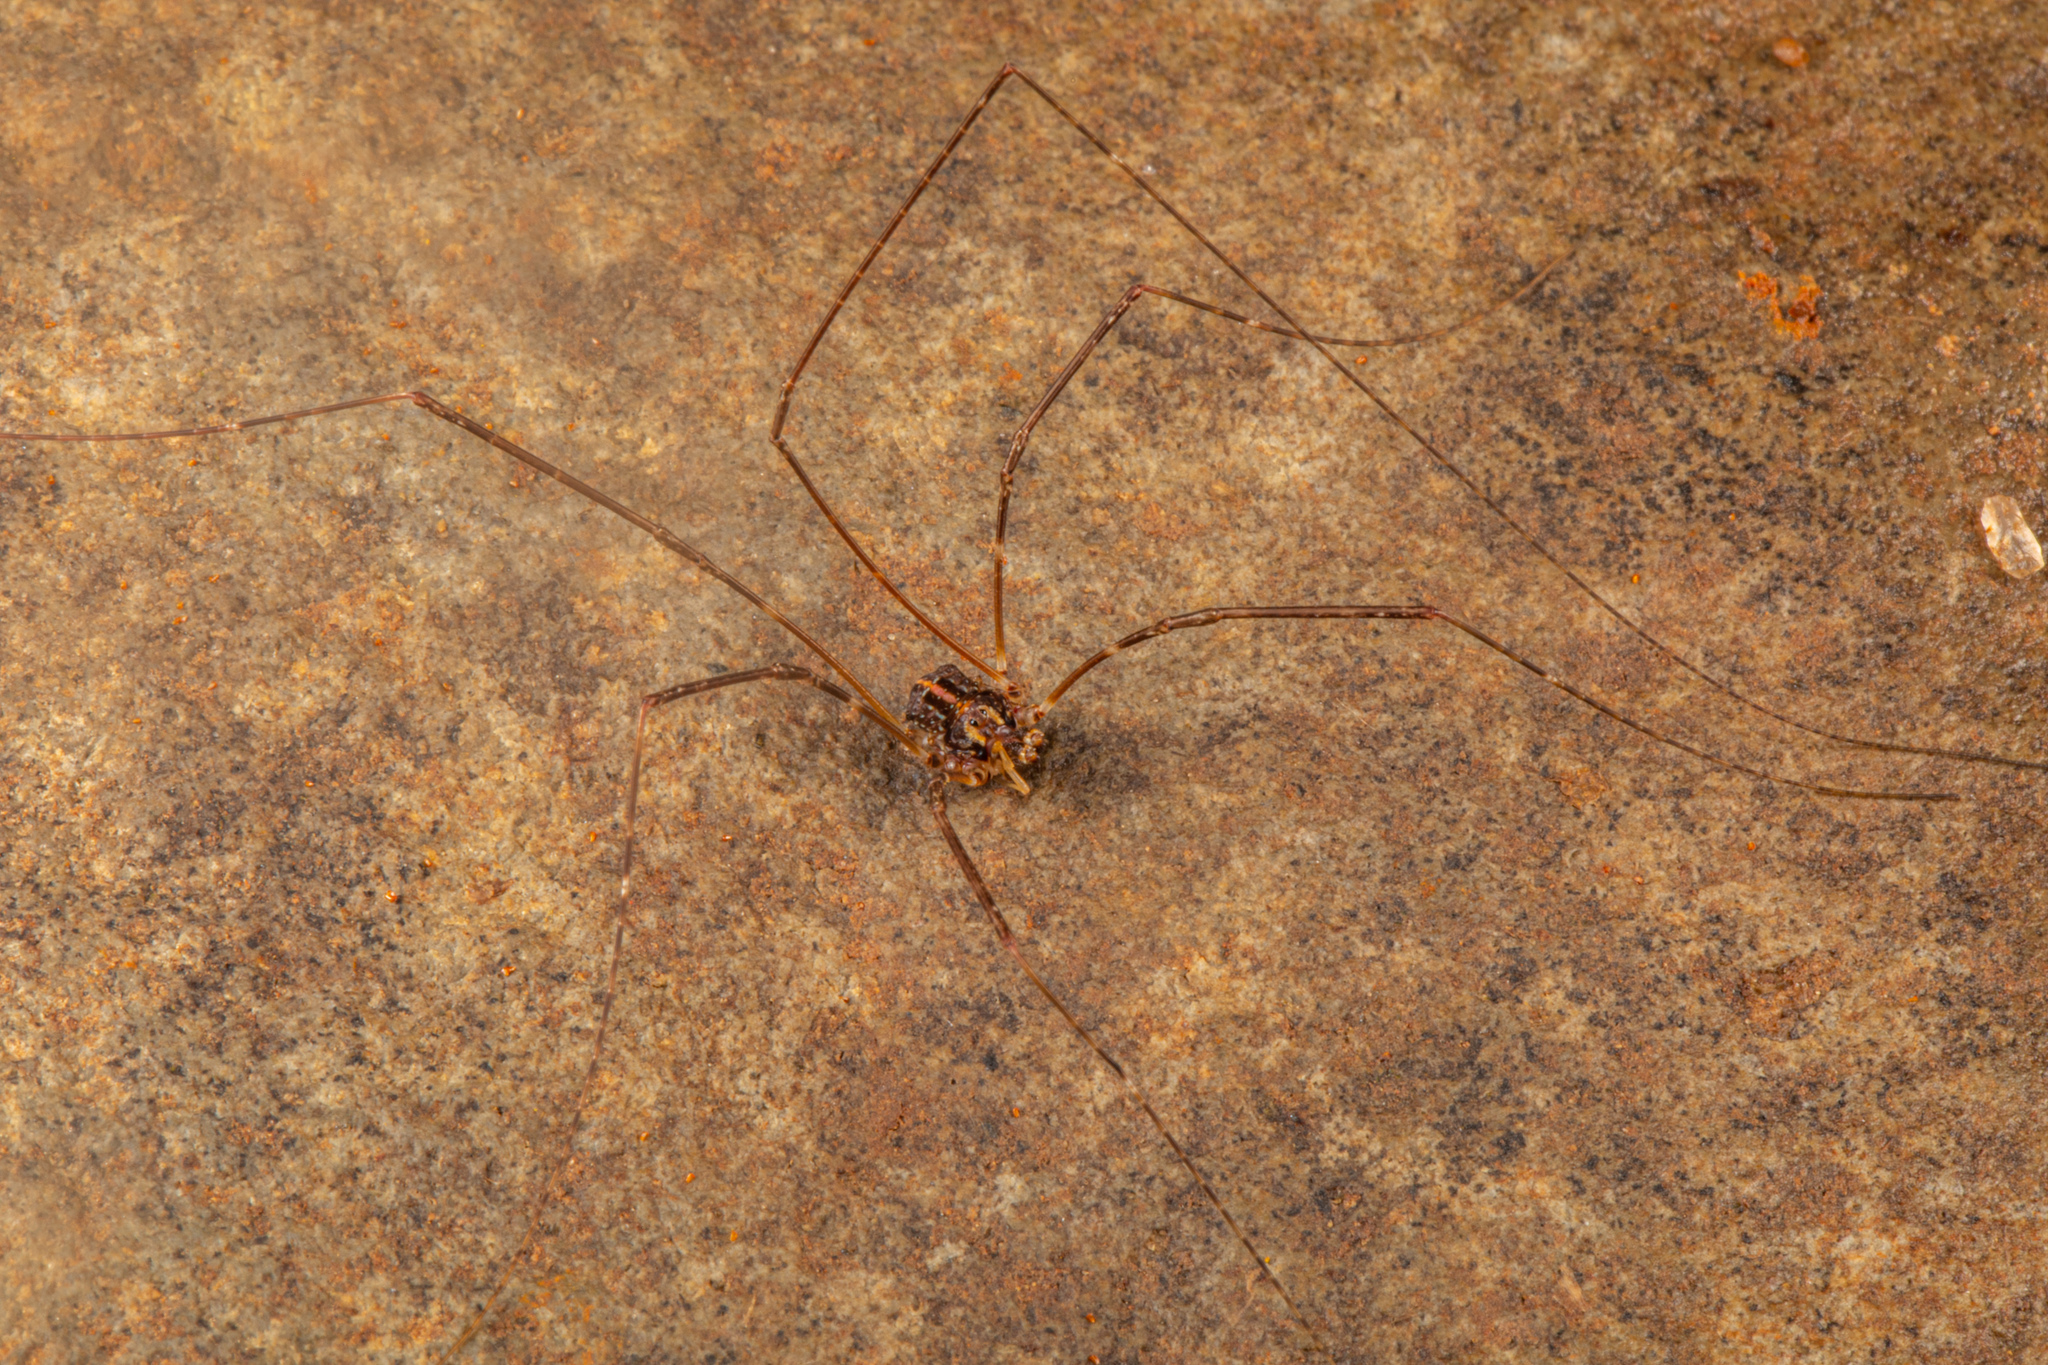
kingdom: Animalia
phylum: Arthropoda
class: Arachnida
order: Opiliones
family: Neopilionidae
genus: Forsteropsalis
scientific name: Forsteropsalis pureora
